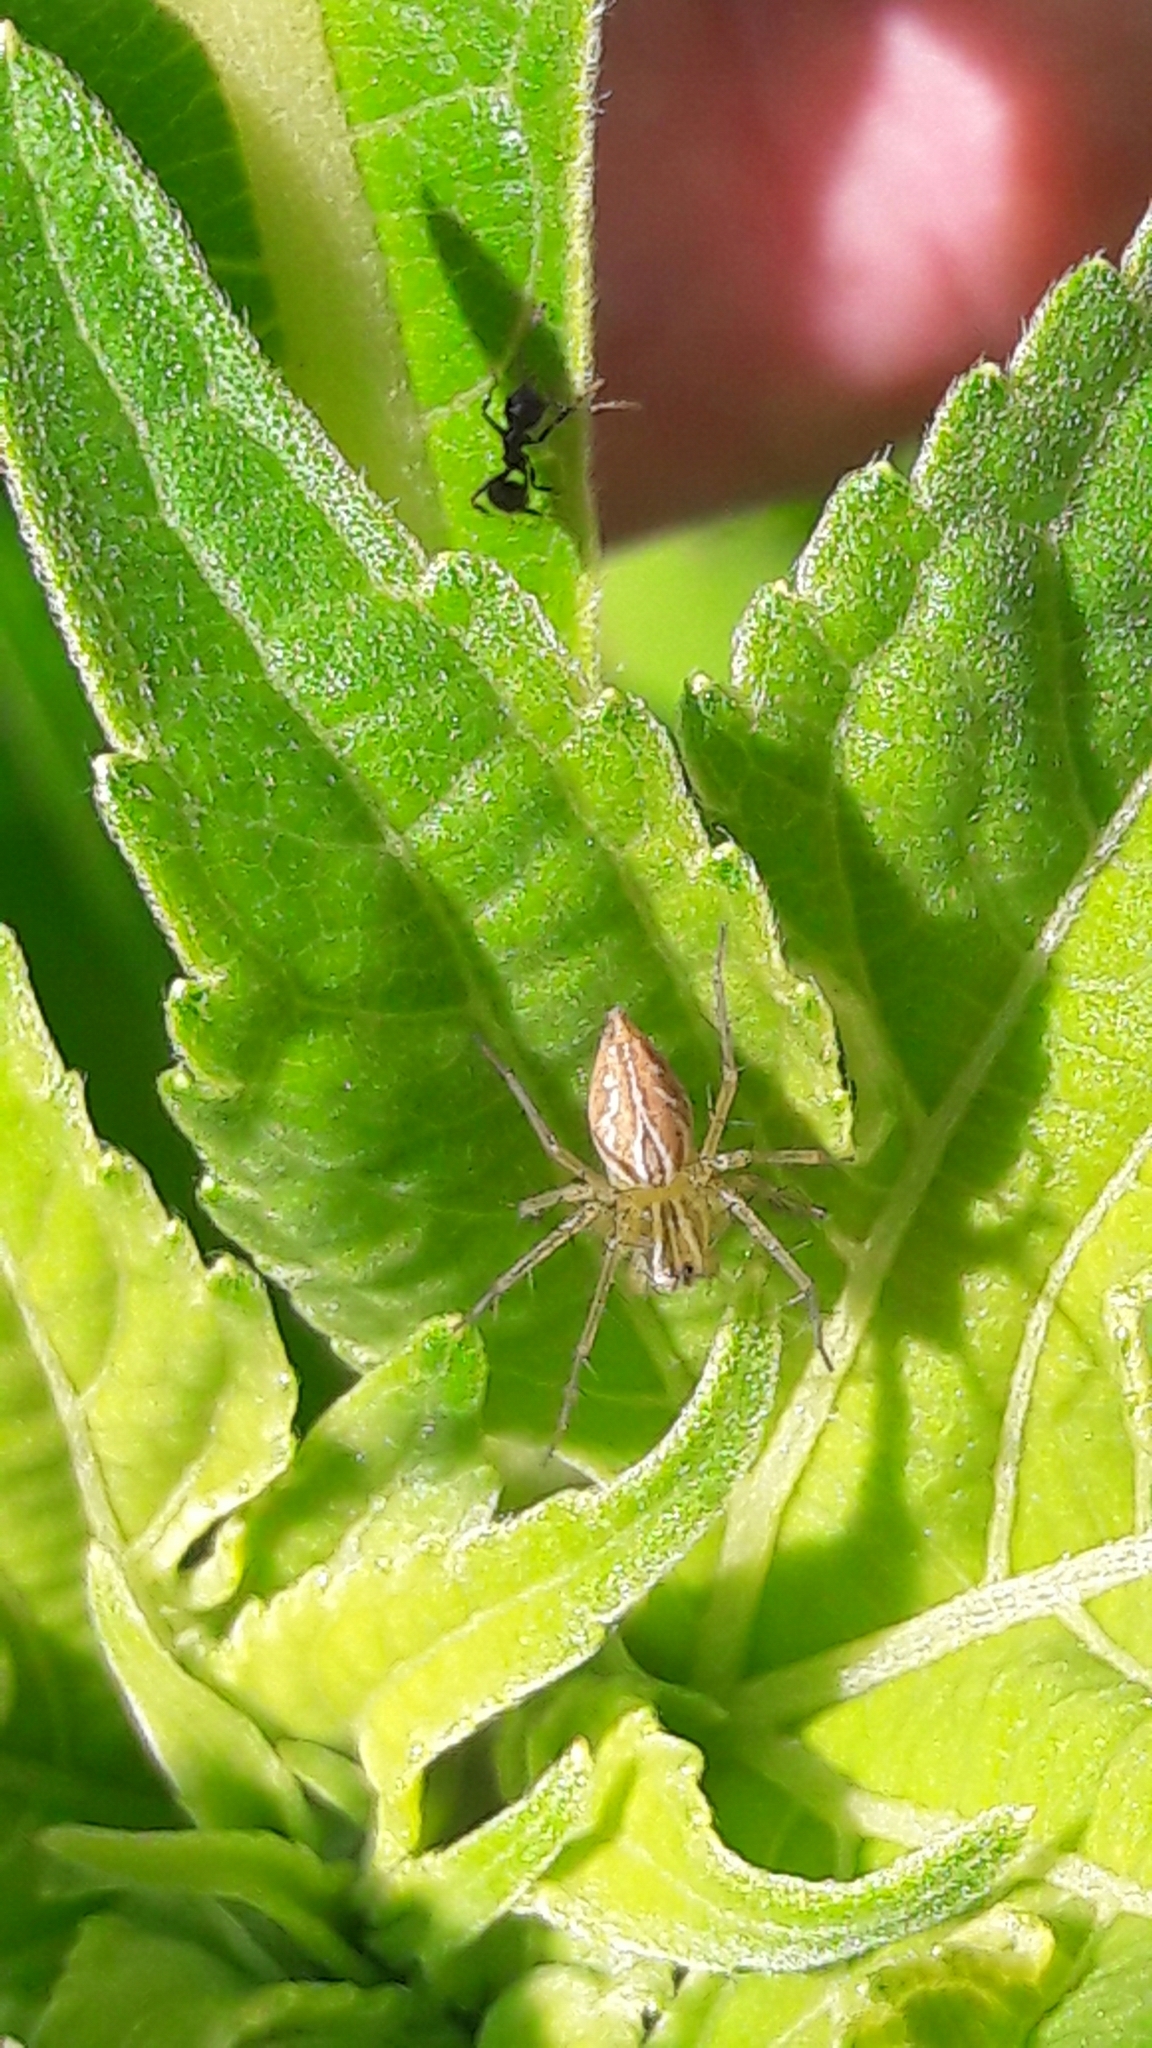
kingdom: Animalia
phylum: Arthropoda
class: Arachnida
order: Araneae
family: Oxyopidae
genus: Oxyopes
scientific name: Oxyopes salticus
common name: Lynx spiders
